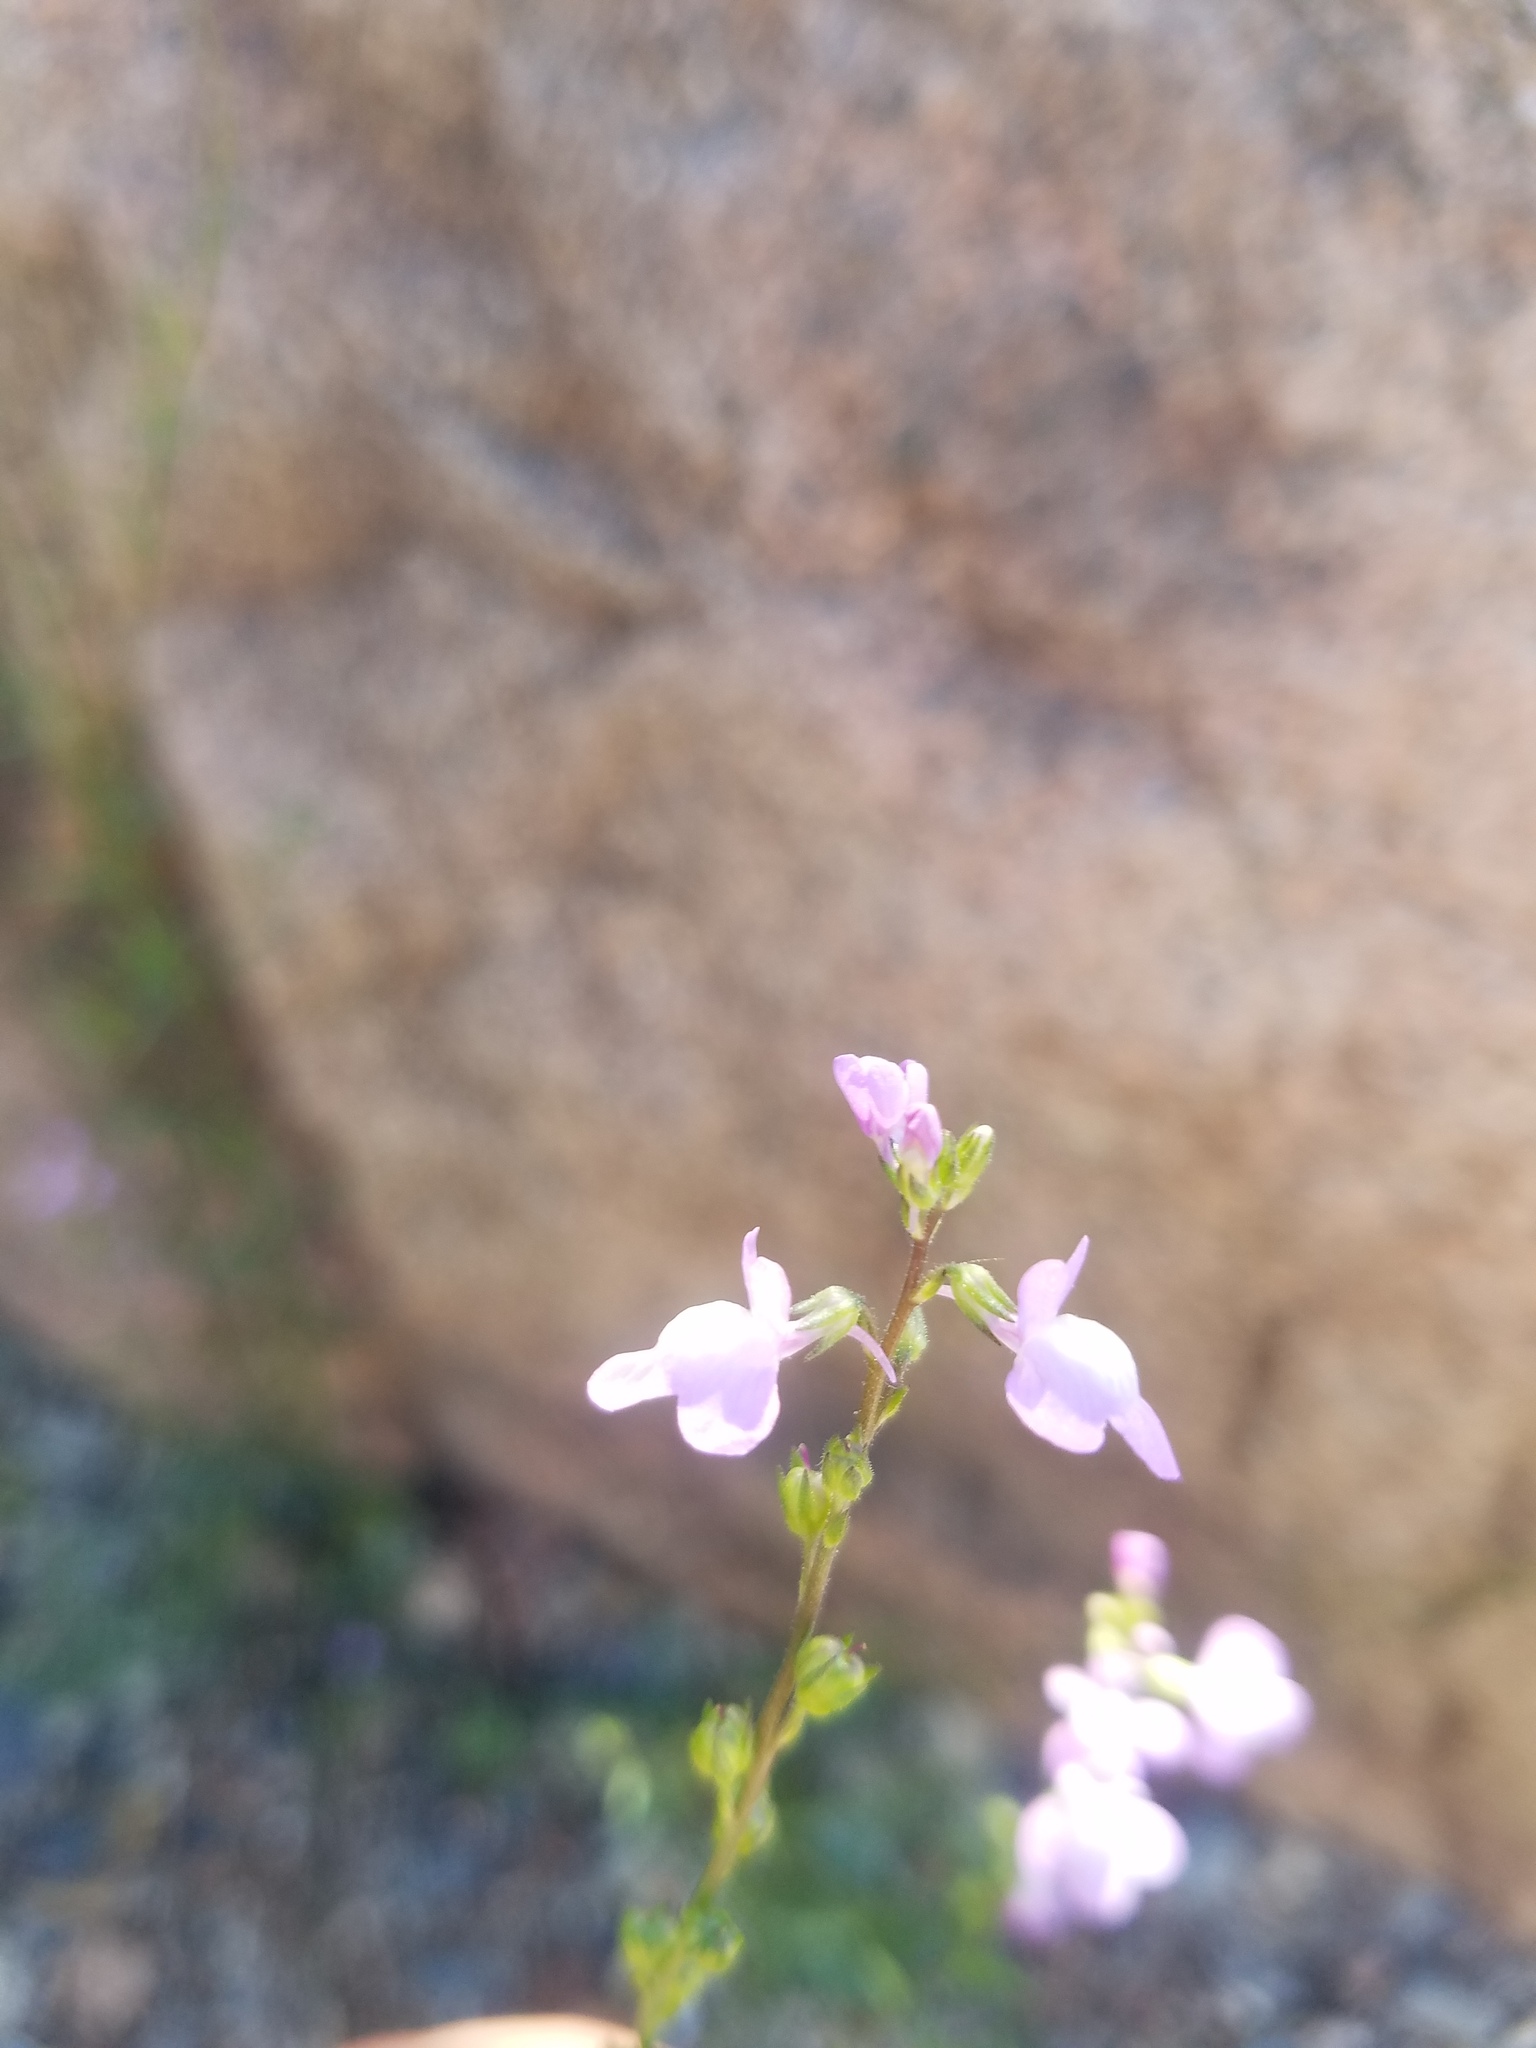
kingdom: Plantae
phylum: Tracheophyta
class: Magnoliopsida
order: Lamiales
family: Plantaginaceae
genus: Nuttallanthus
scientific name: Nuttallanthus canadensis
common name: Blue toadflax
